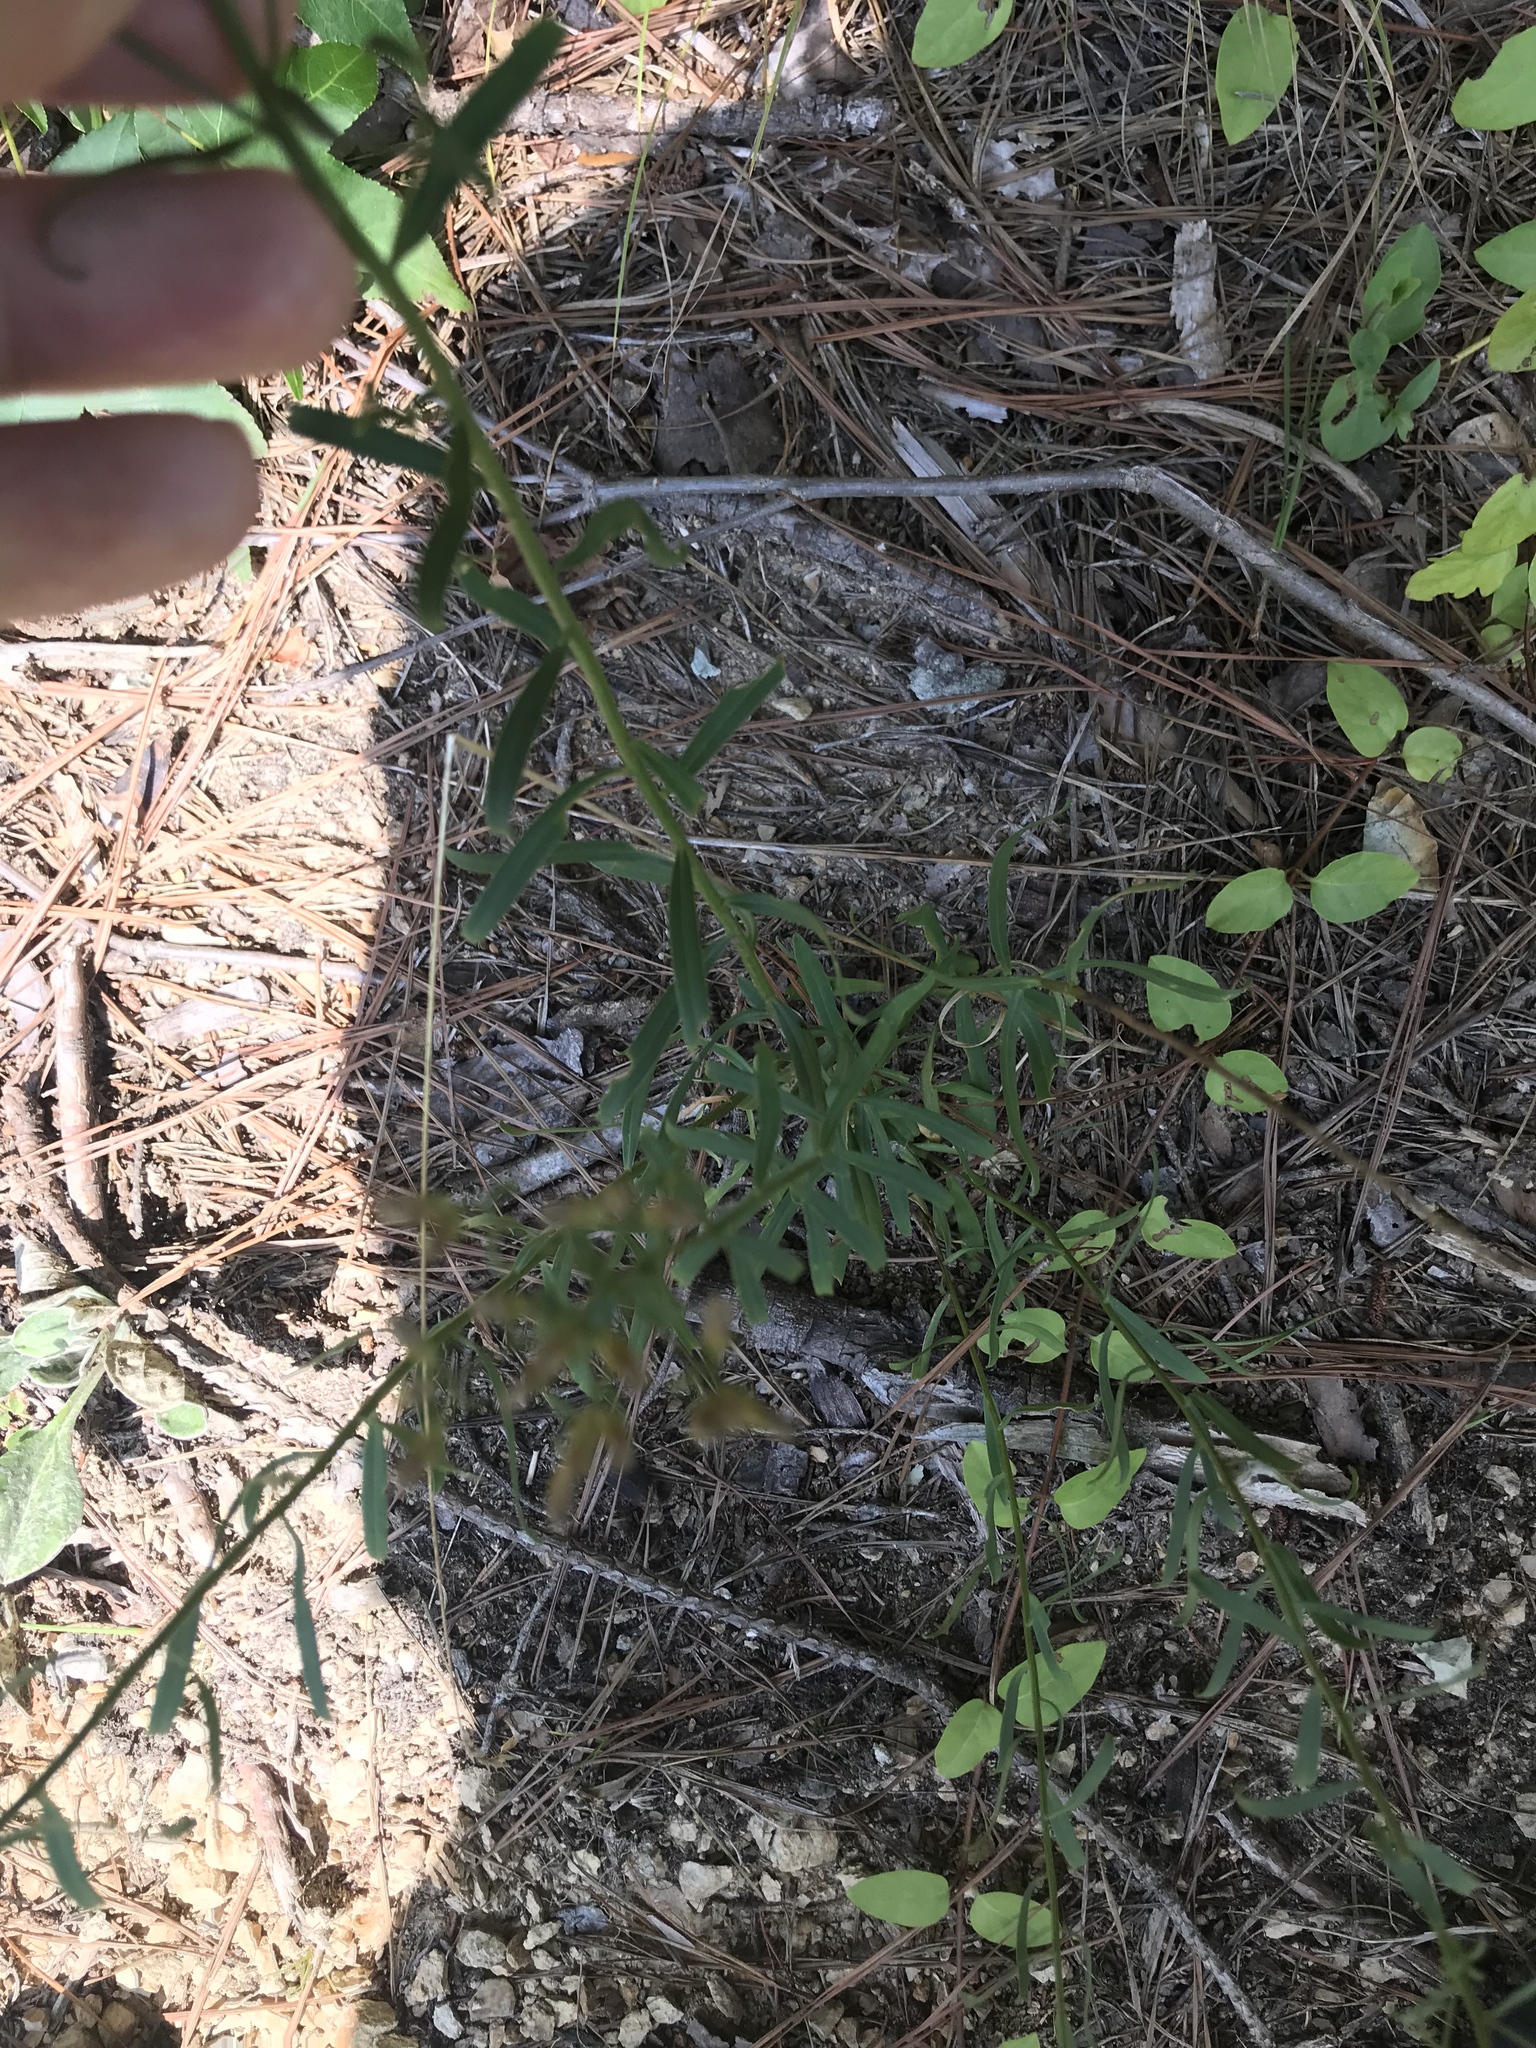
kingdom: Plantae
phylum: Tracheophyta
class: Magnoliopsida
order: Asterales
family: Asteraceae
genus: Sericocarpus
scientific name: Sericocarpus linifolius
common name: Narrow-leaf aster
